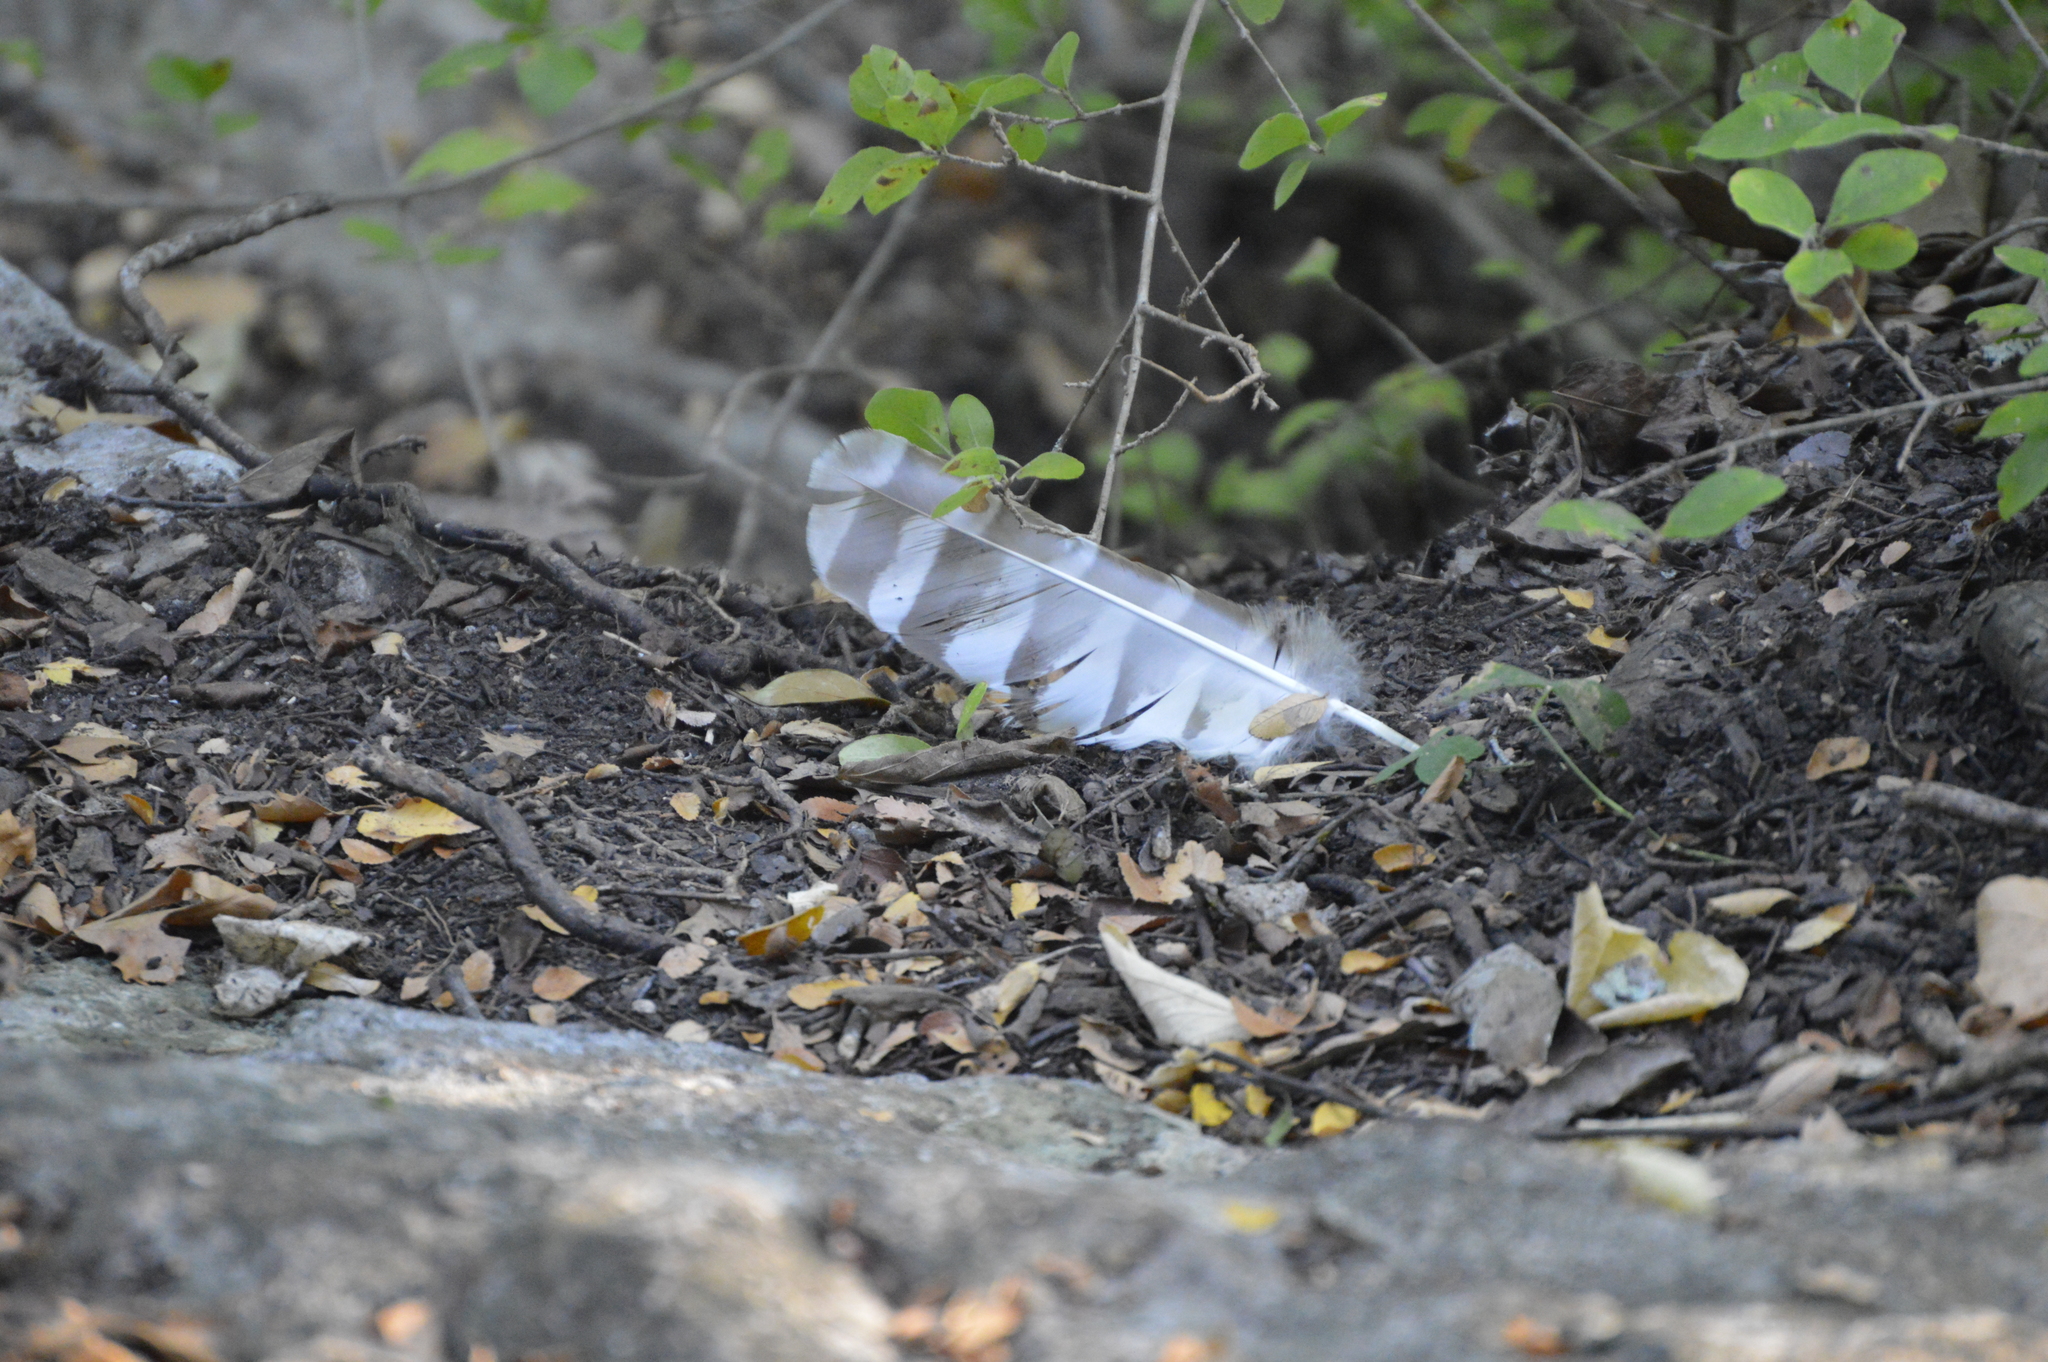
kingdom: Animalia
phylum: Chordata
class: Aves
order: Strigiformes
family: Strigidae
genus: Strix
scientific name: Strix varia
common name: Barred owl
